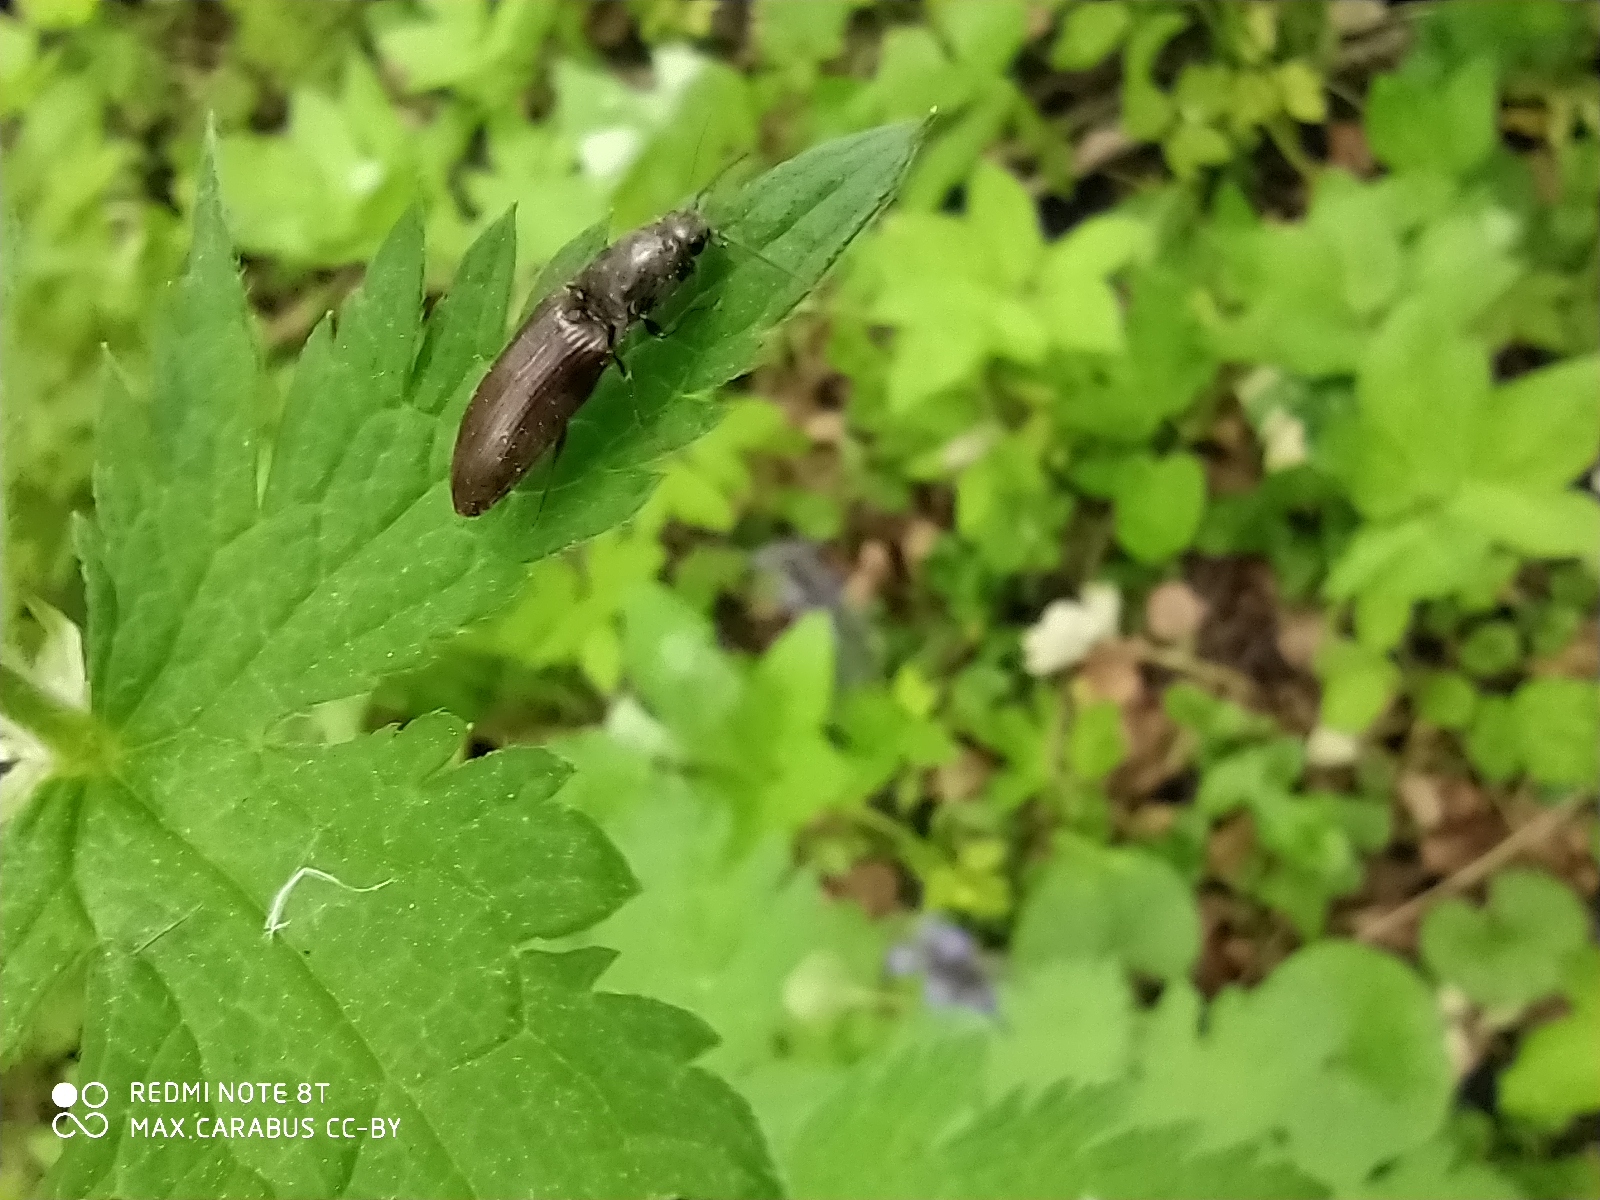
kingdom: Plantae
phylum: Tracheophyta
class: Magnoliopsida
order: Geraniales
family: Geraniaceae
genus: Geranium
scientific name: Geranium sylvaticum
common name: Wood crane's-bill
